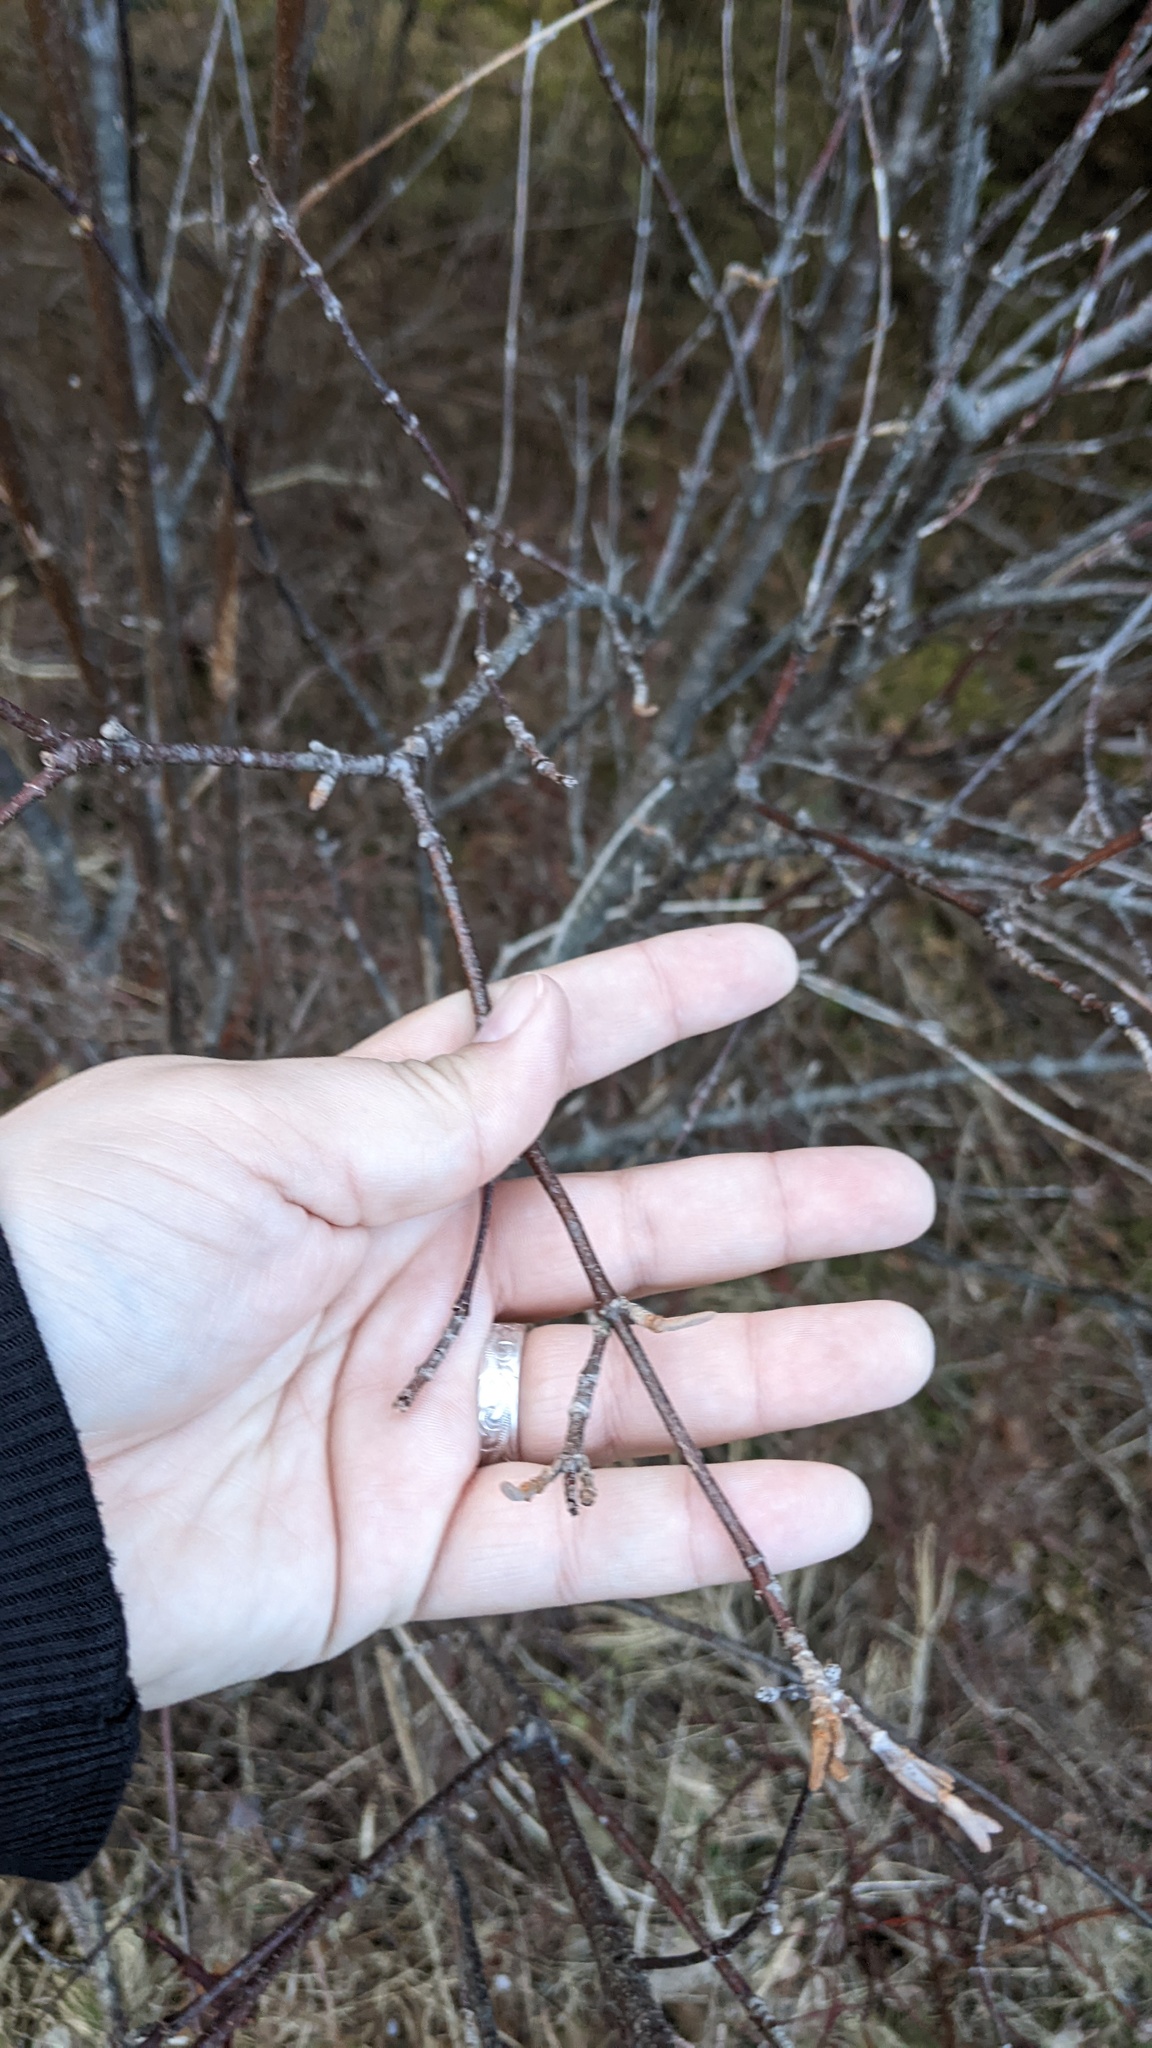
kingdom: Plantae
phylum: Tracheophyta
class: Magnoliopsida
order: Dipsacales
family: Viburnaceae
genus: Viburnum
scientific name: Viburnum cassinoides
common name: Swamp haw
